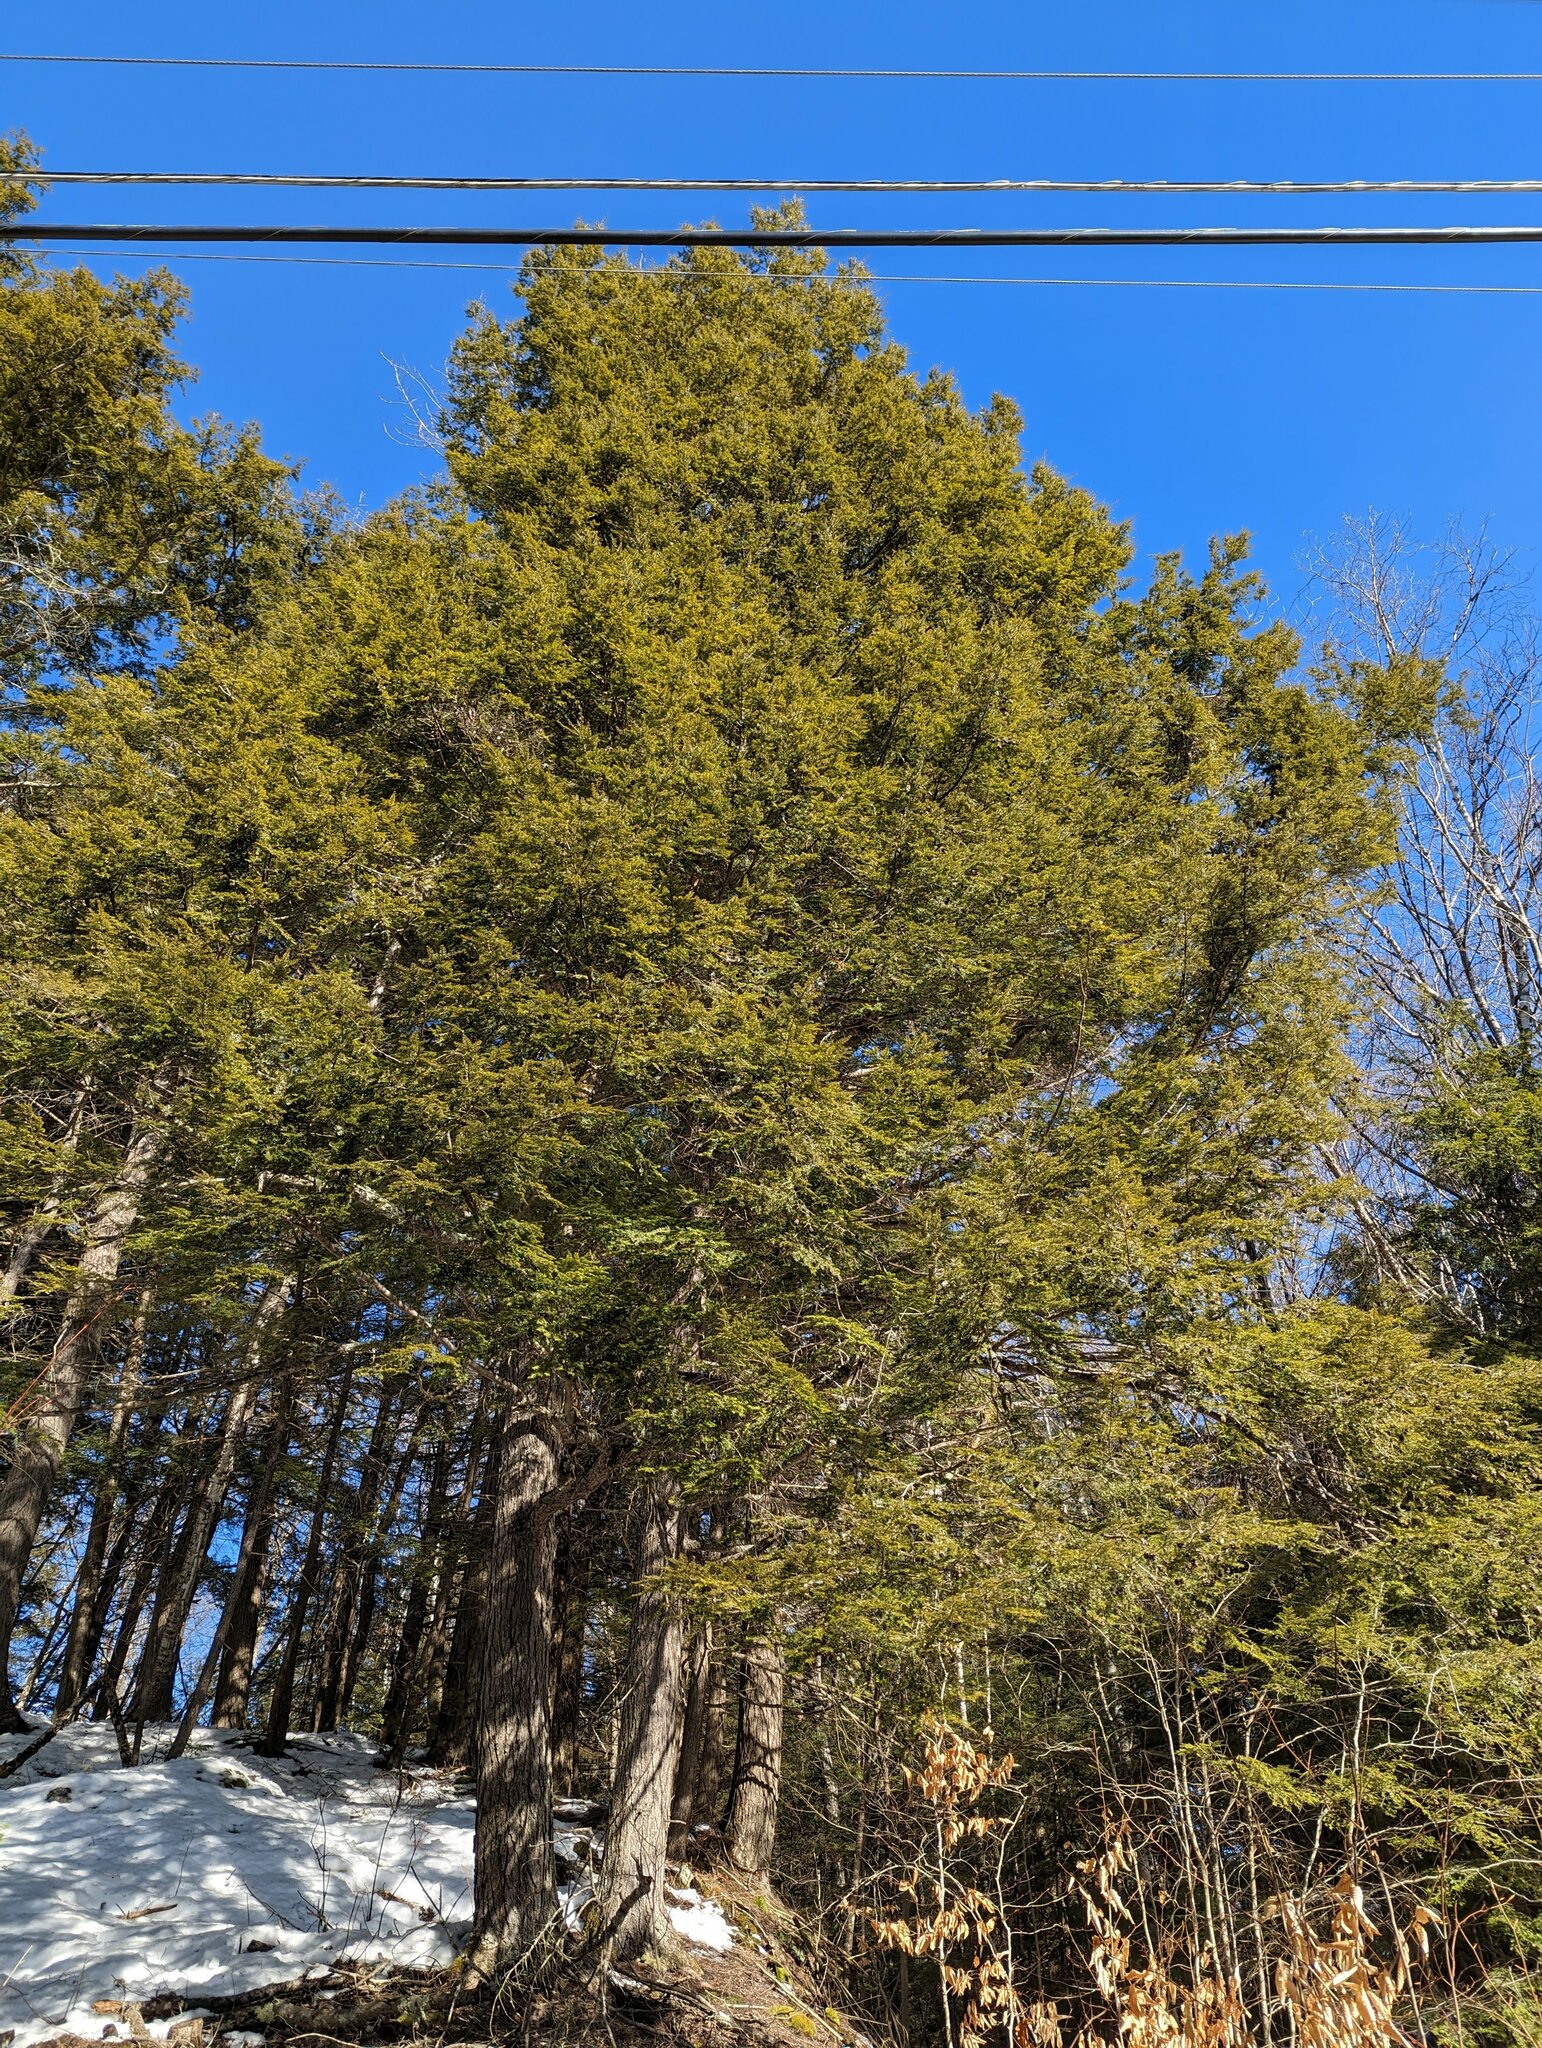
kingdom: Plantae
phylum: Tracheophyta
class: Pinopsida
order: Pinales
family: Pinaceae
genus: Tsuga
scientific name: Tsuga canadensis
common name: Eastern hemlock
